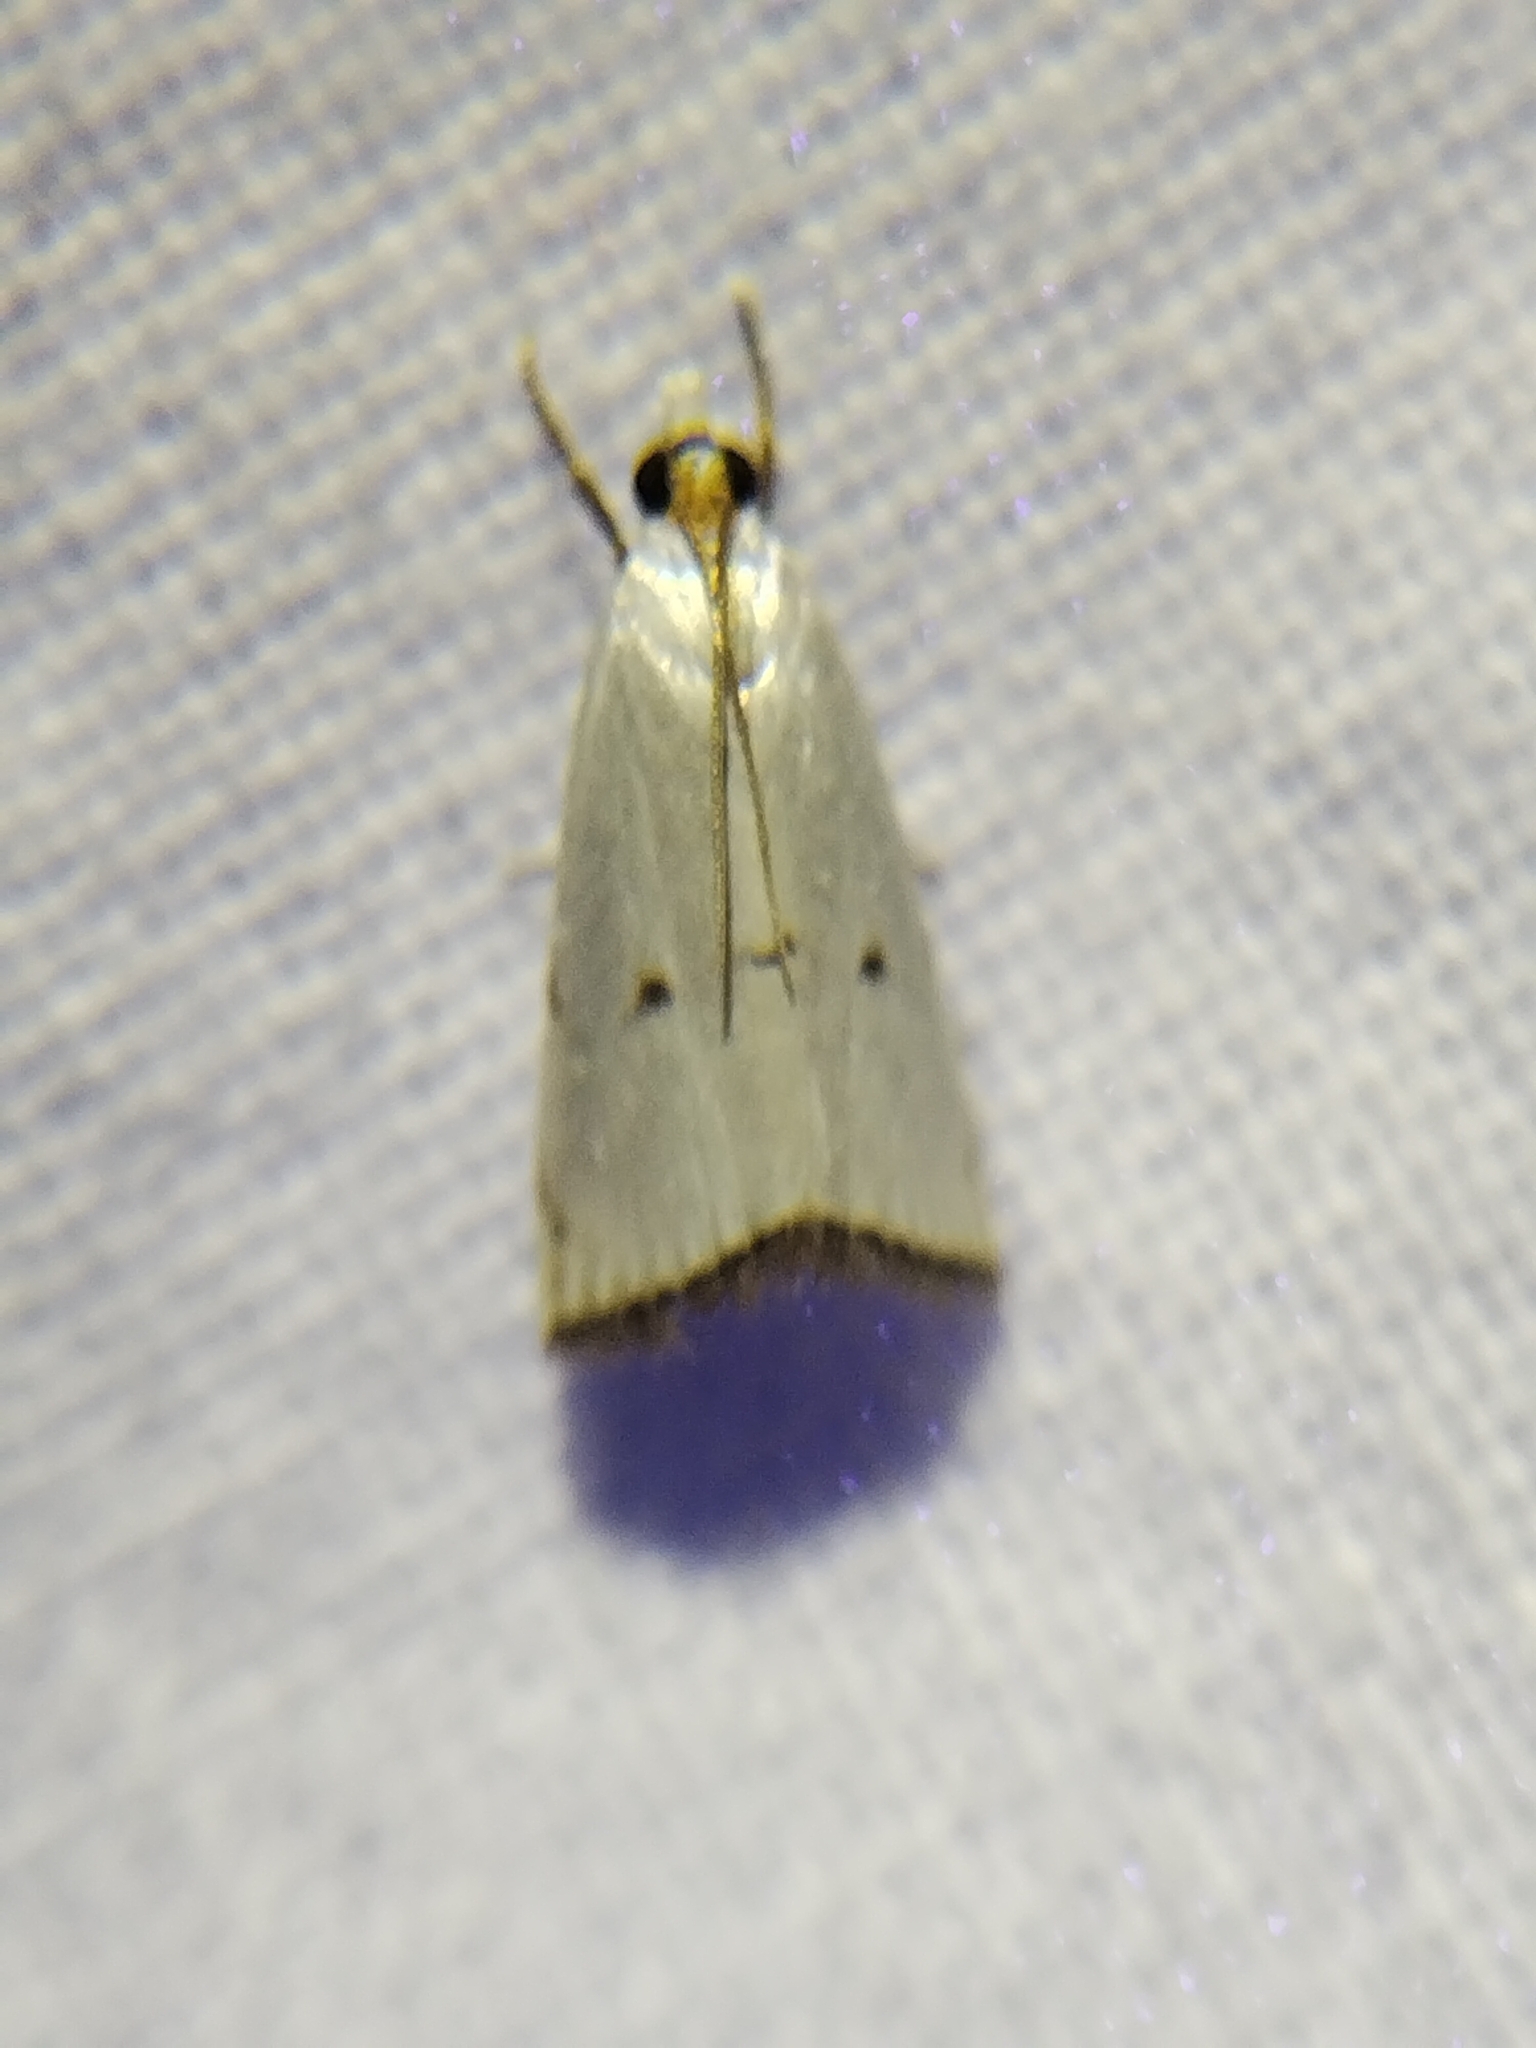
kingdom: Animalia
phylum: Arthropoda
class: Insecta
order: Lepidoptera
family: Crambidae
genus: Argyria
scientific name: Argyria pusillalis
